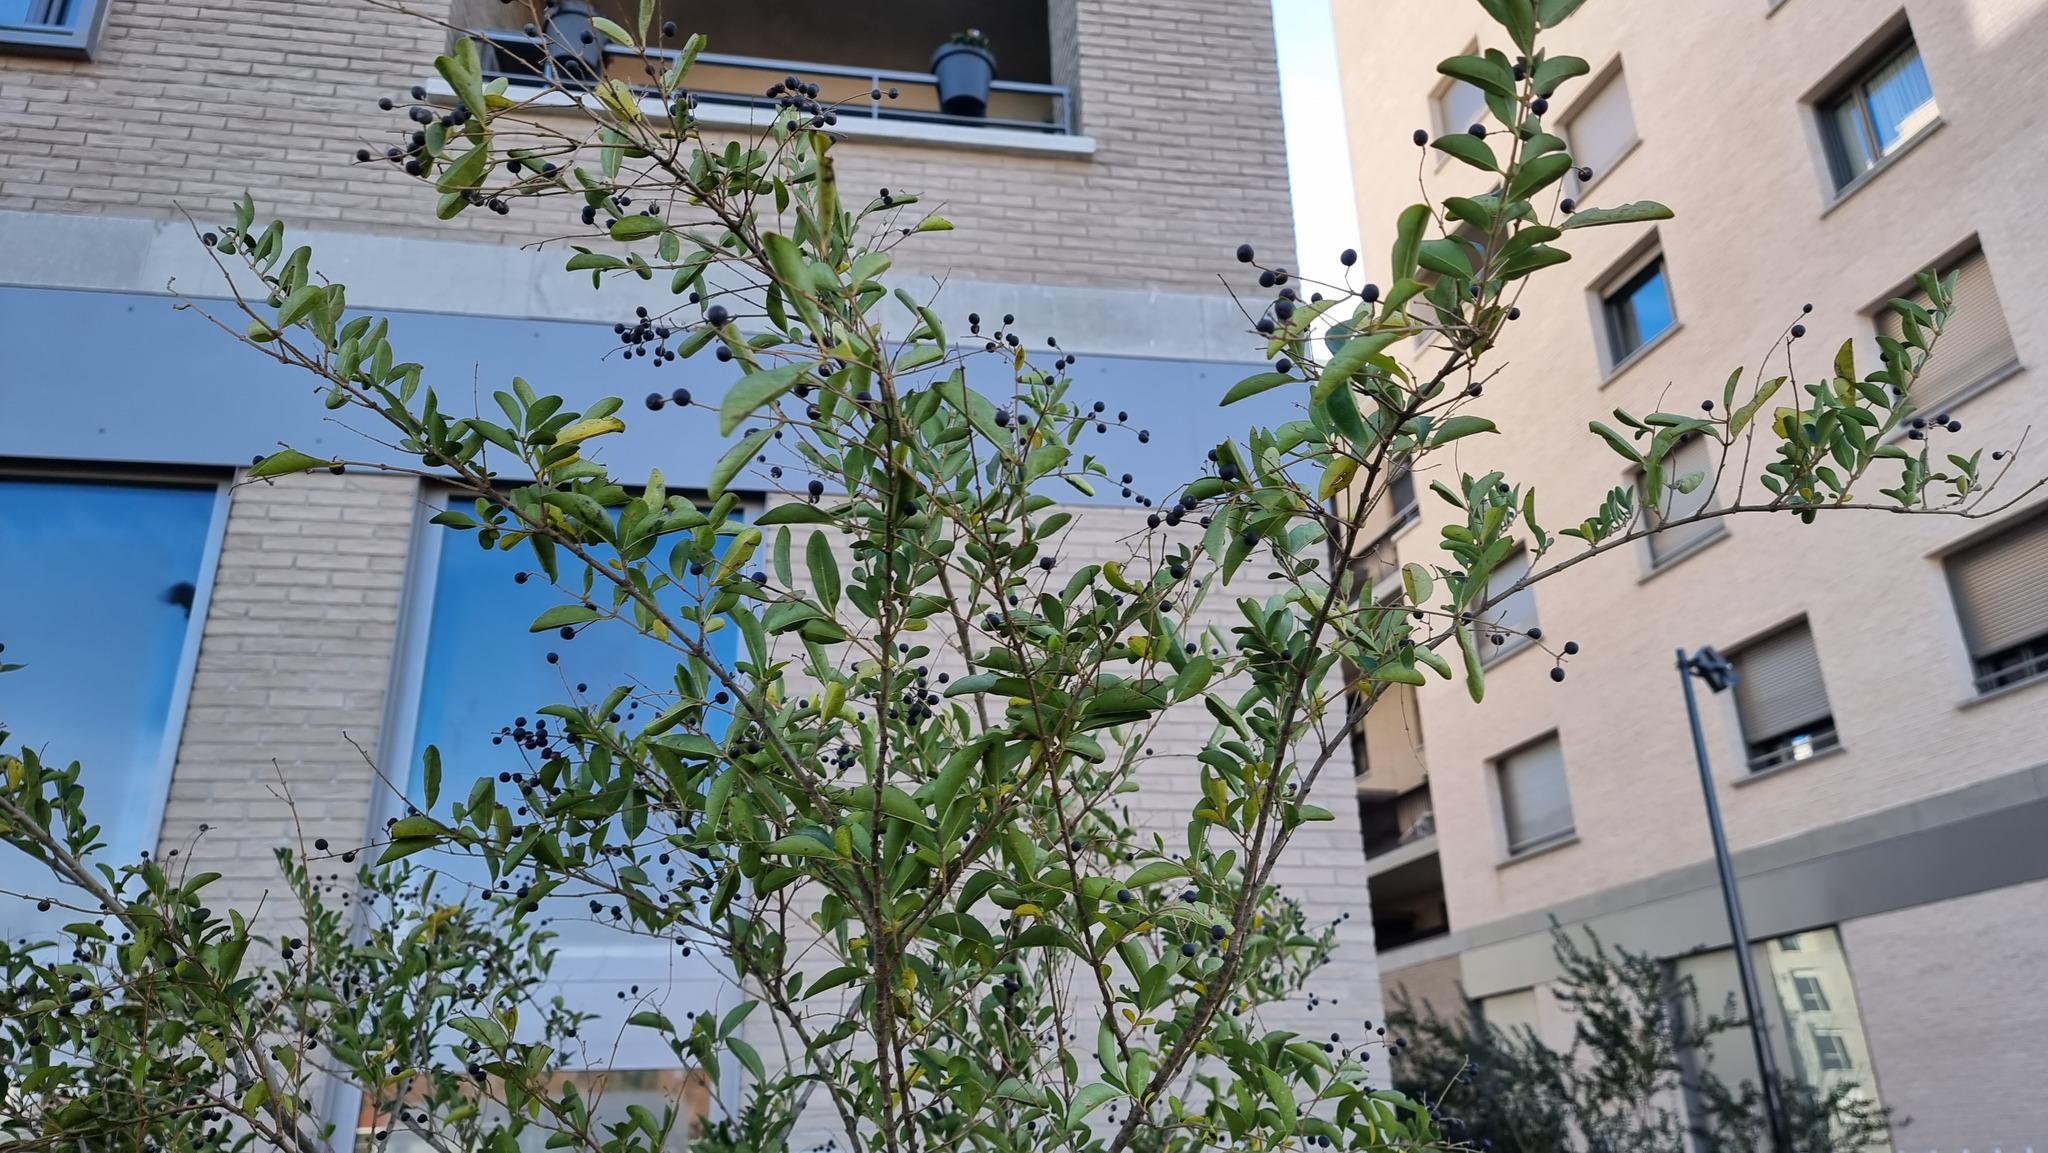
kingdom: Plantae
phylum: Tracheophyta
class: Magnoliopsida
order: Lamiales
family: Oleaceae
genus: Ligustrum
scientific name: Ligustrum ovalifolium
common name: California privet
